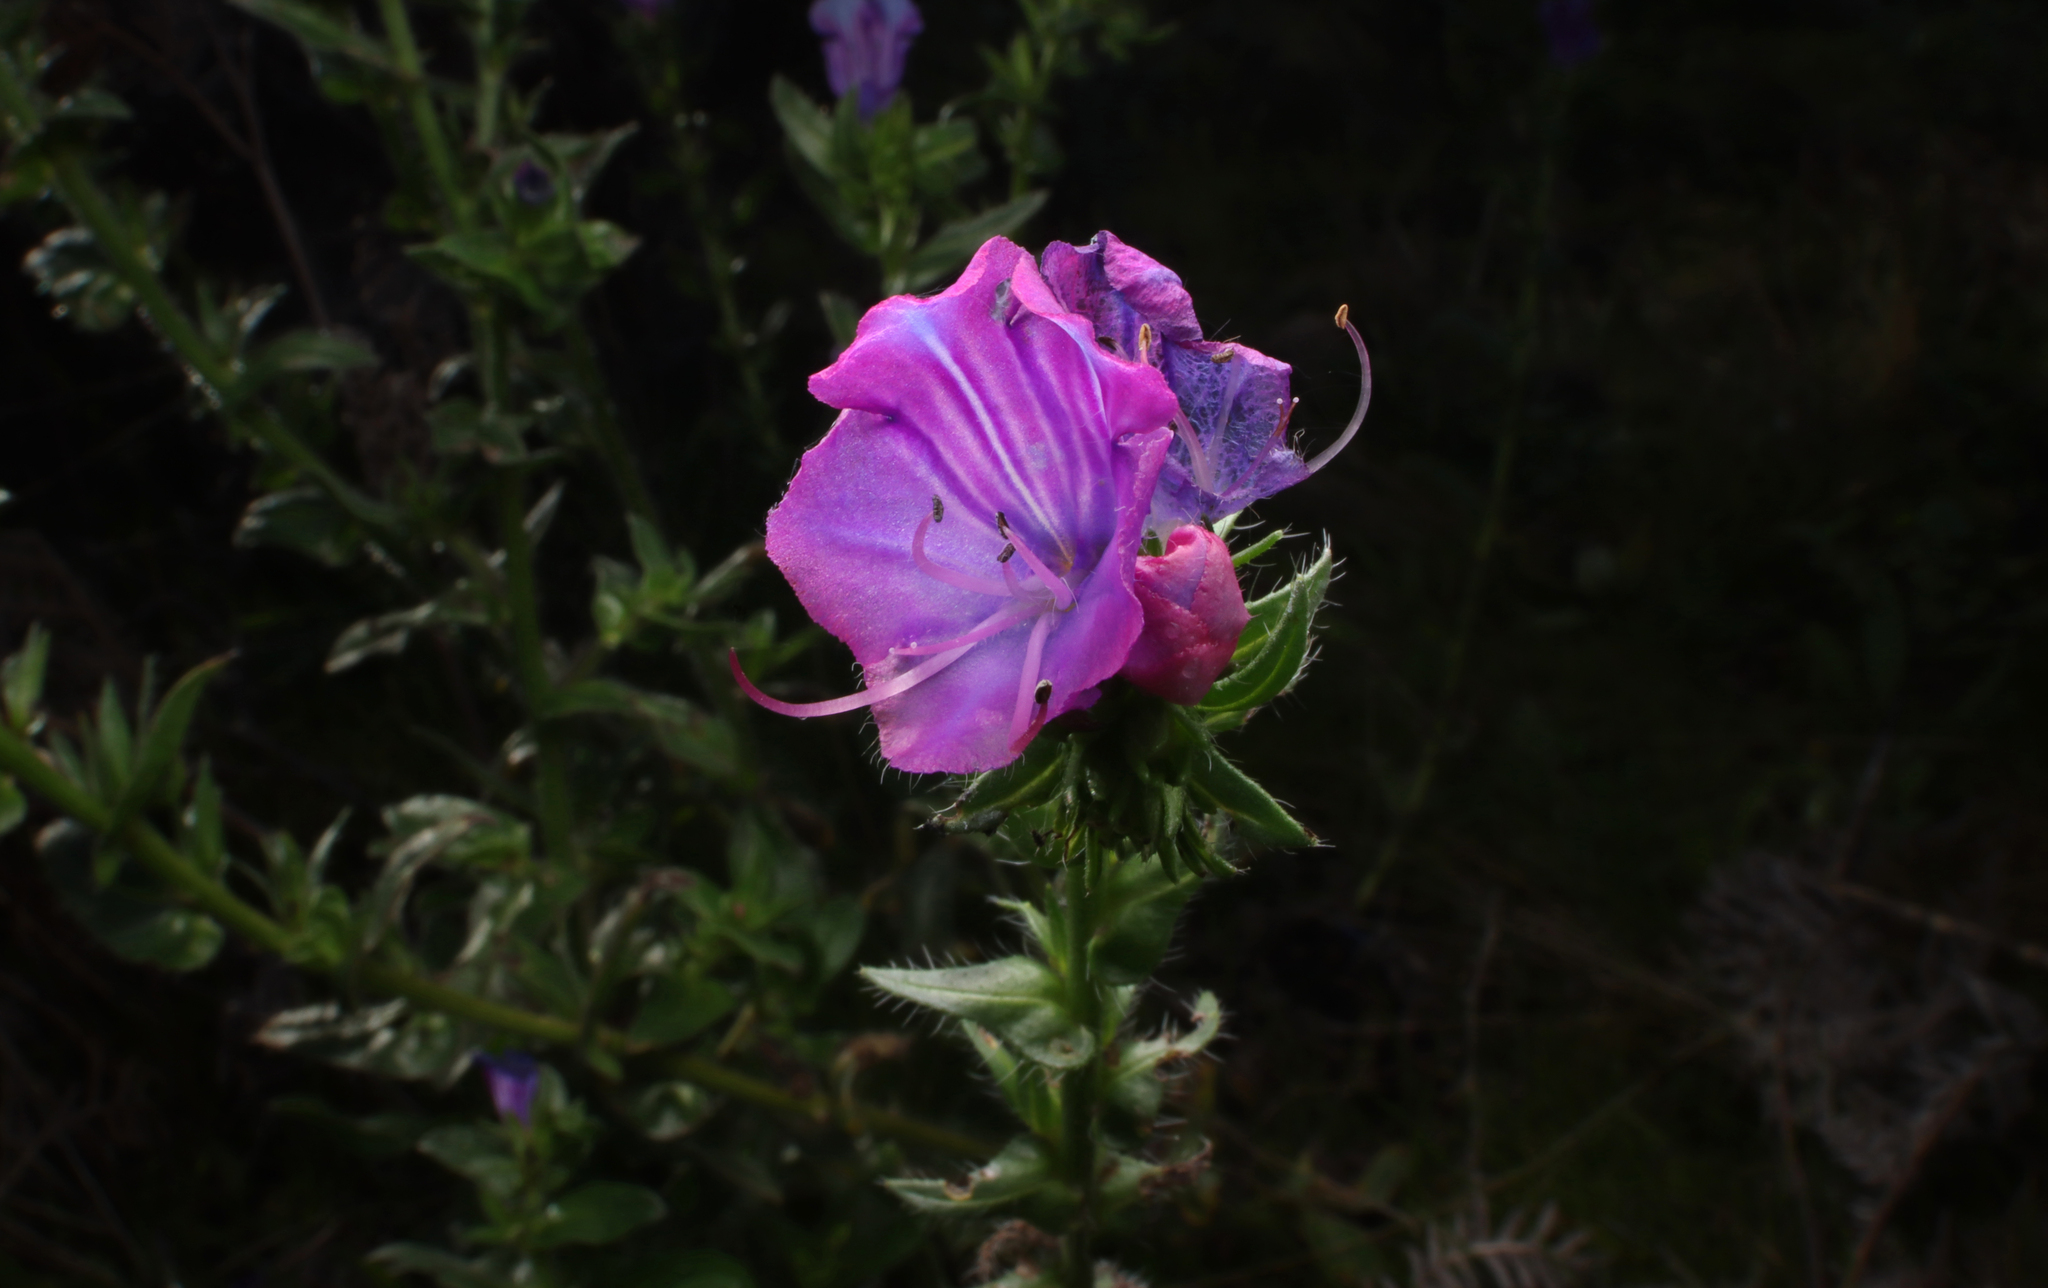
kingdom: Plantae
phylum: Tracheophyta
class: Magnoliopsida
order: Boraginales
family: Boraginaceae
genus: Echium
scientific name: Echium plantagineum
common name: Purple viper's-bugloss
